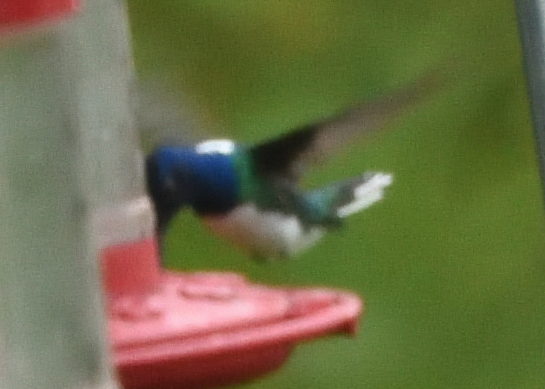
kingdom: Animalia
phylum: Chordata
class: Aves
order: Apodiformes
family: Trochilidae
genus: Florisuga
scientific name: Florisuga mellivora
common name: White-necked jacobin
